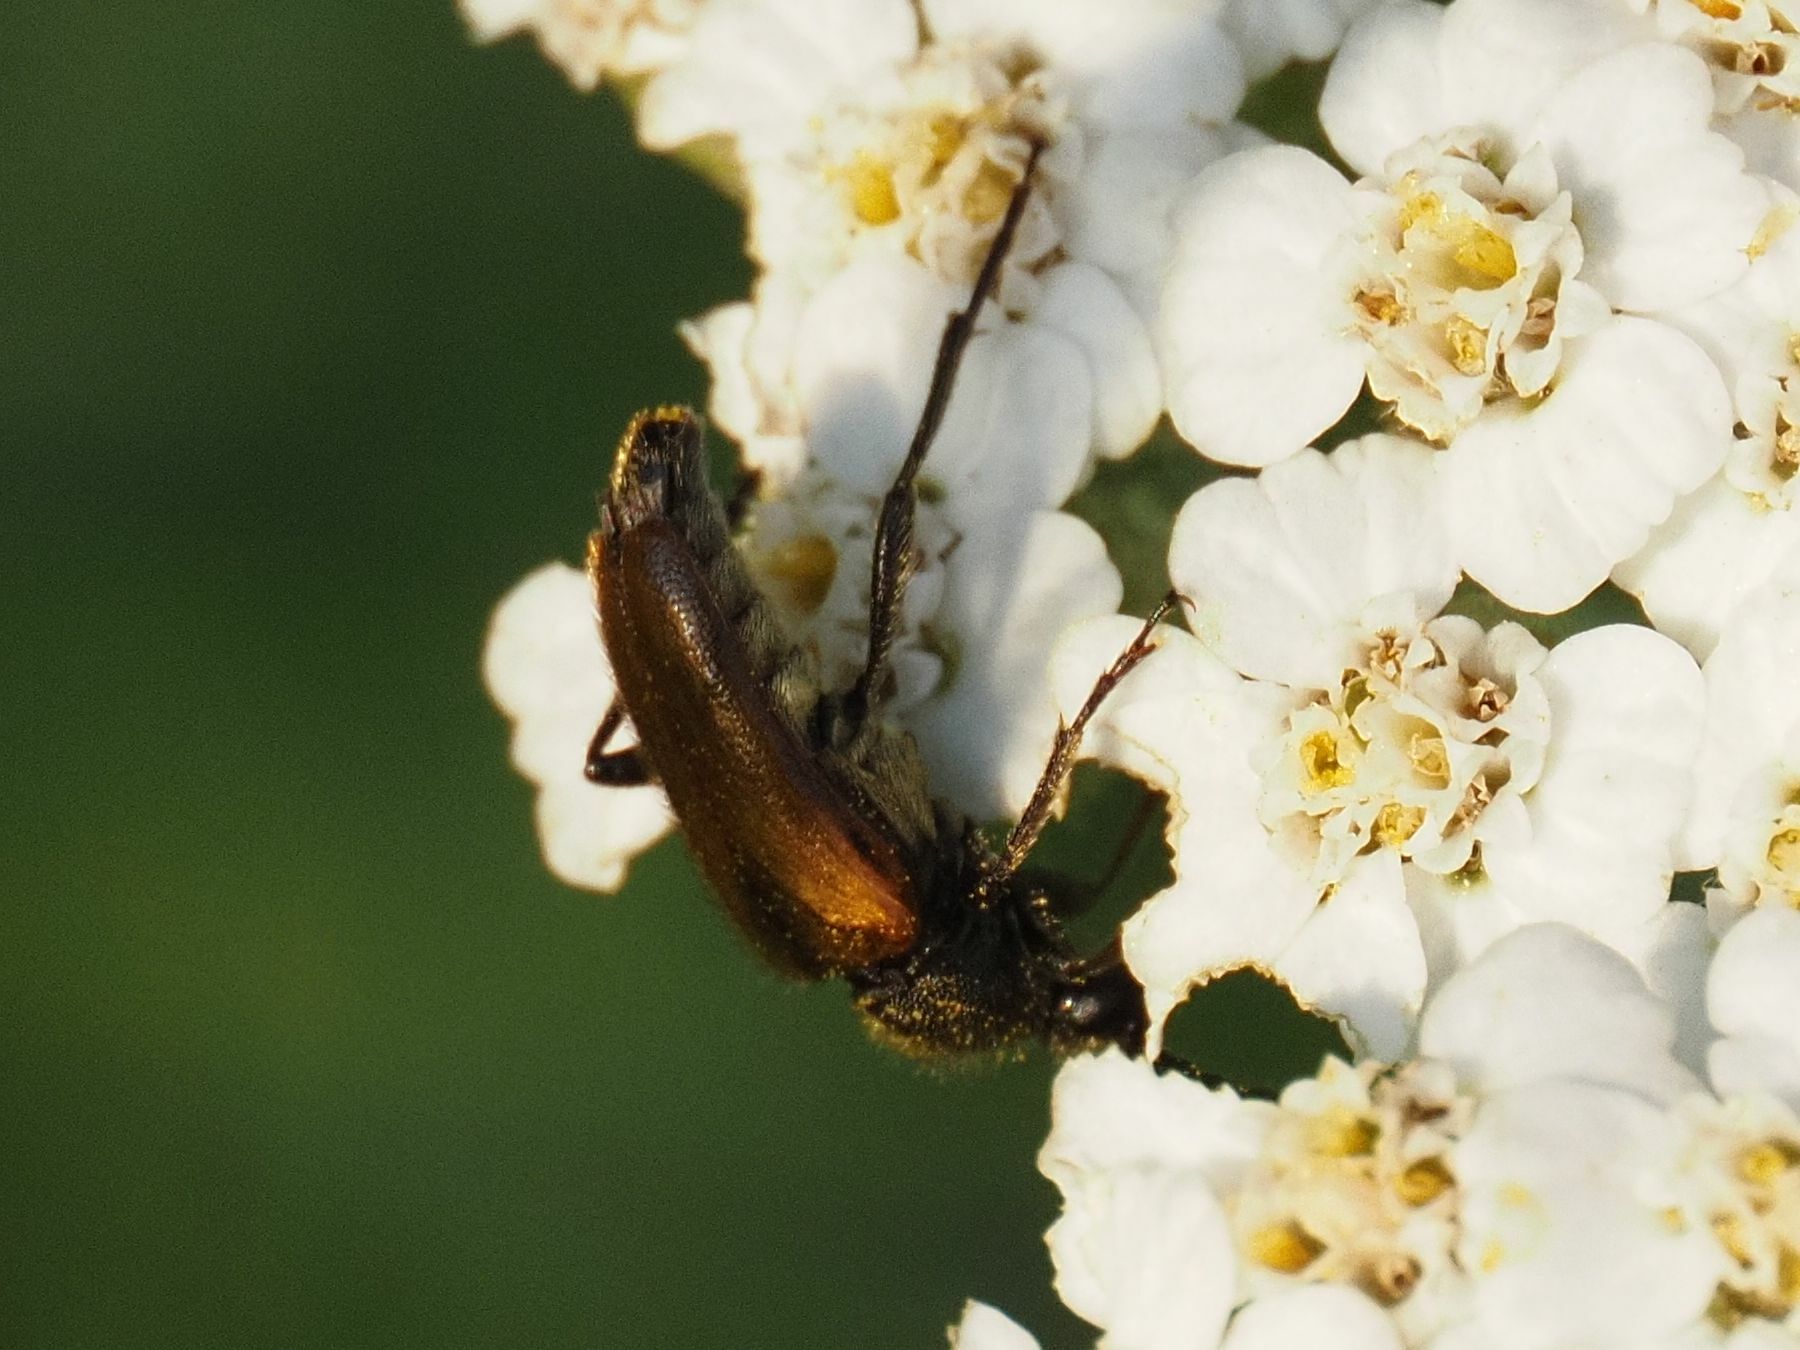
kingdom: Animalia
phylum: Arthropoda
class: Insecta
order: Coleoptera
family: Cerambycidae
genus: Pseudovadonia
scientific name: Pseudovadonia livida
